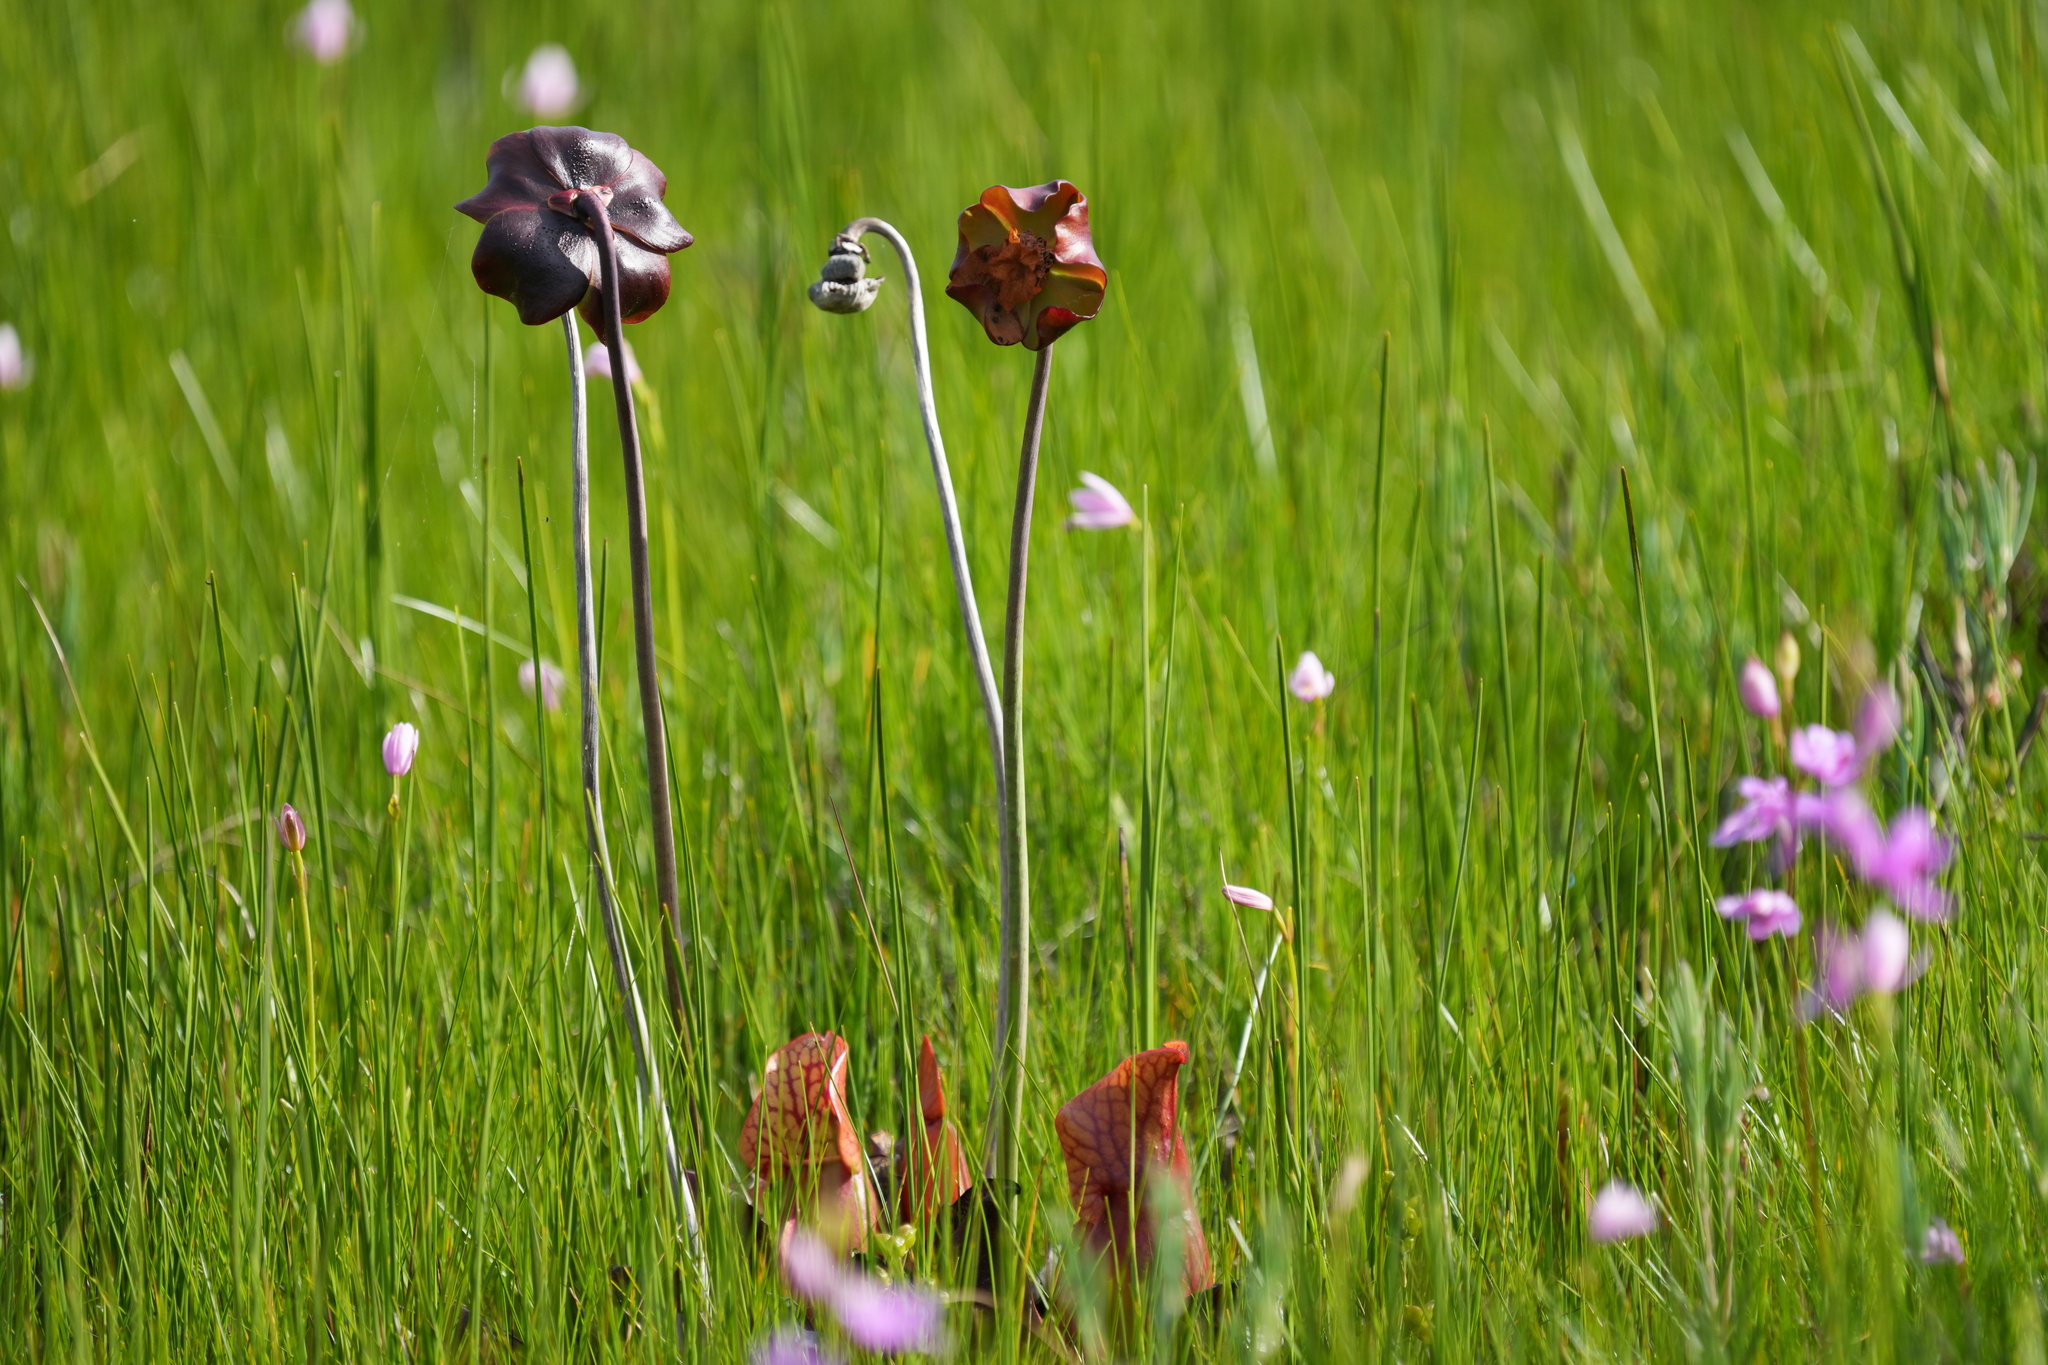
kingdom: Plantae
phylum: Tracheophyta
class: Magnoliopsida
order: Ericales
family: Sarraceniaceae
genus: Sarracenia
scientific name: Sarracenia purpurea
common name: Pitcherplant
